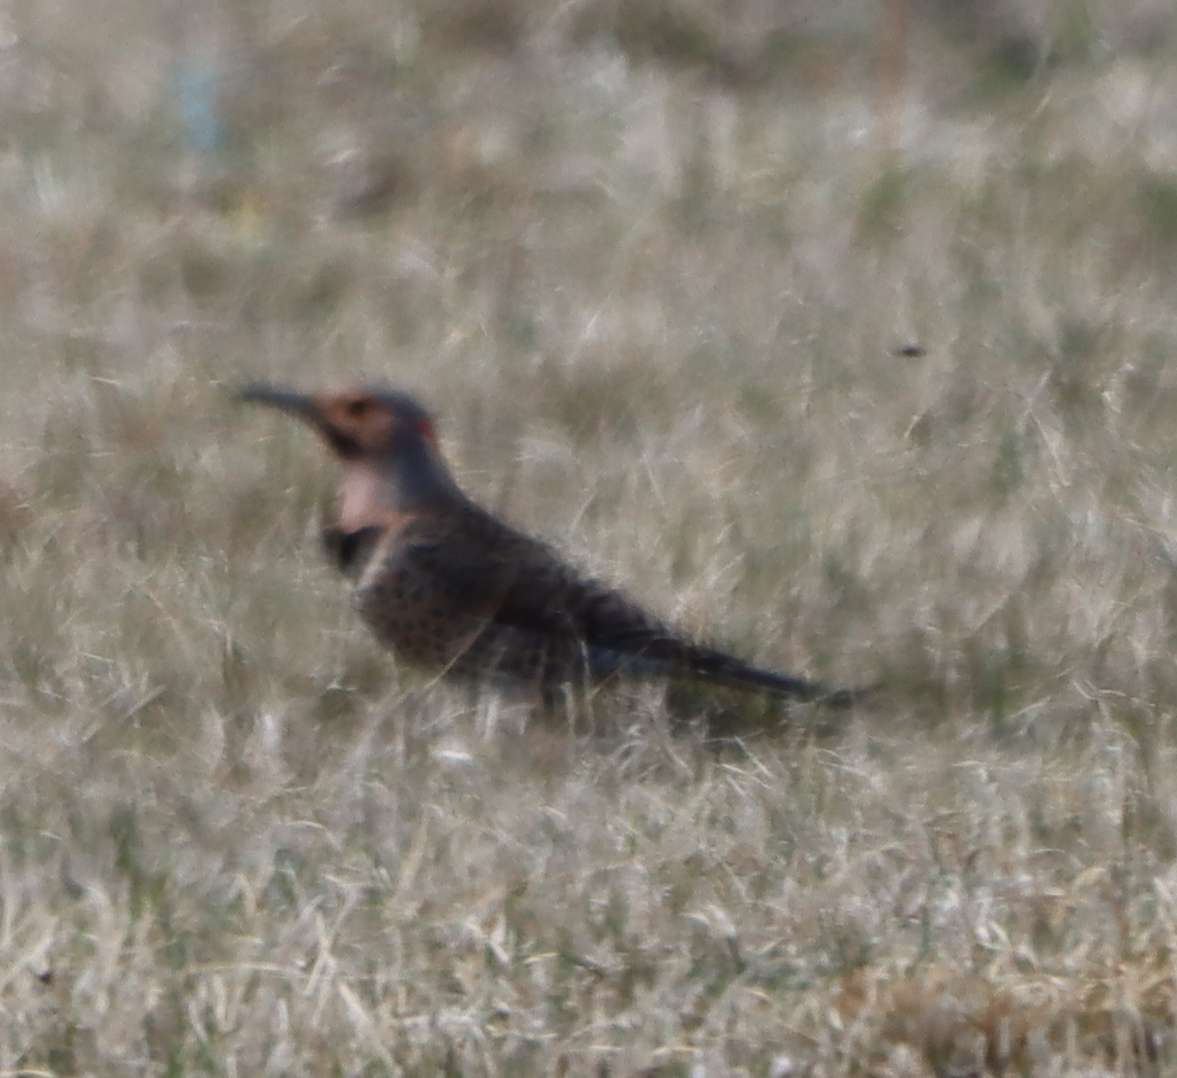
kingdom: Animalia
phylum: Chordata
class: Aves
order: Piciformes
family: Picidae
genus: Colaptes
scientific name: Colaptes auratus
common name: Northern flicker
